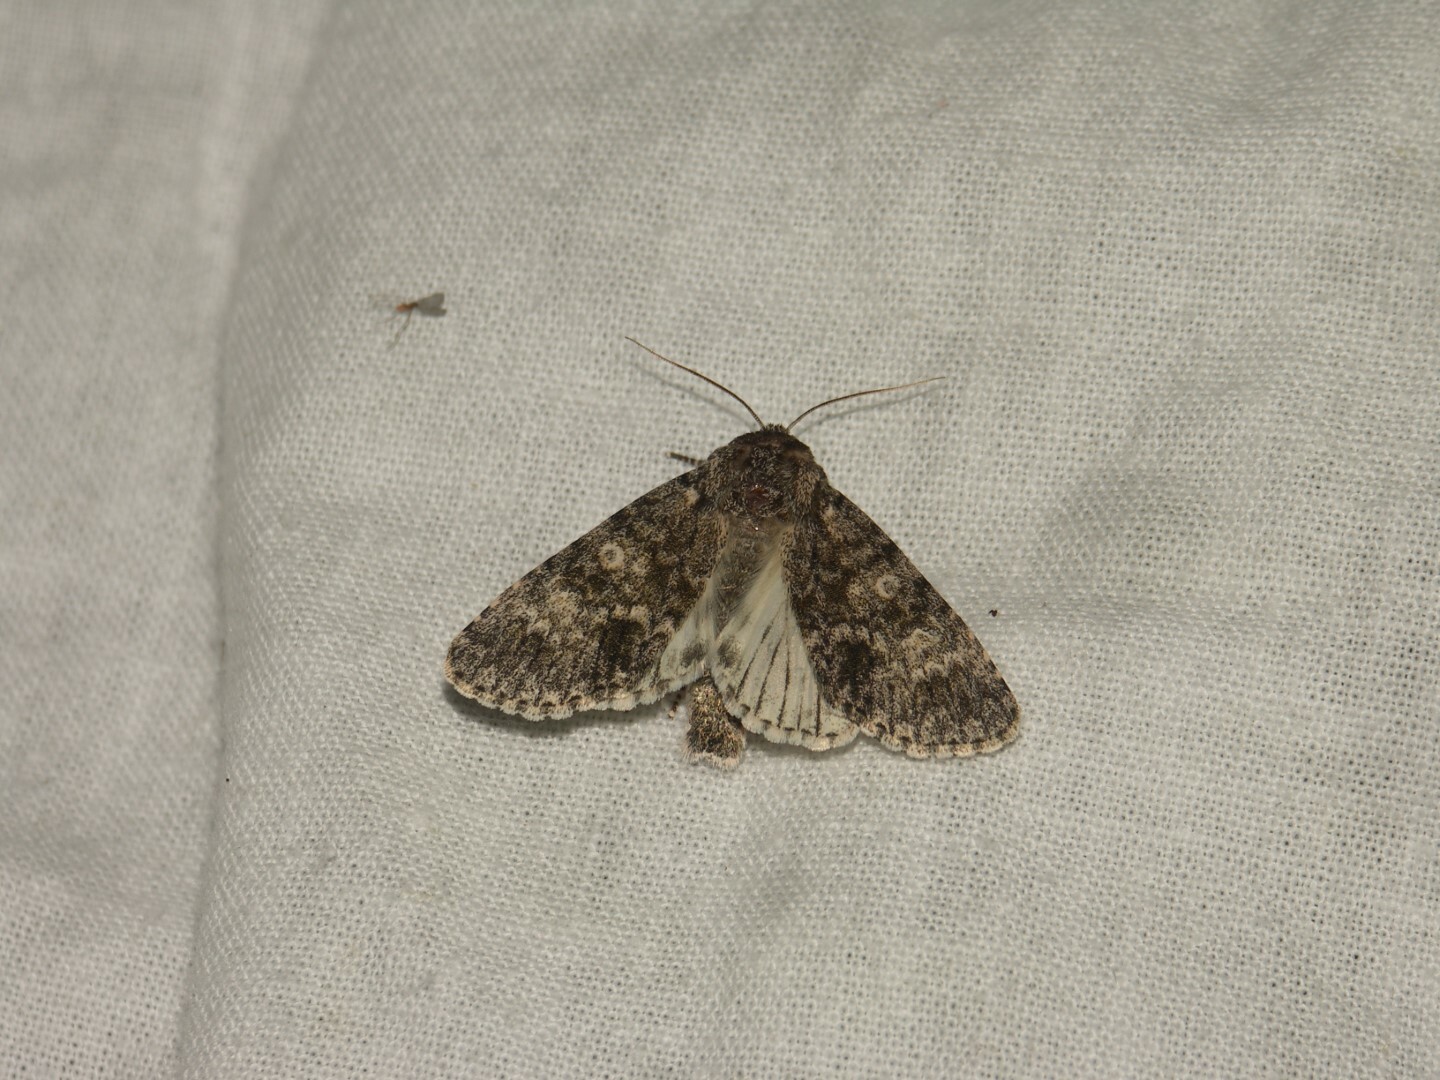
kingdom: Animalia
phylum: Arthropoda
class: Insecta
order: Lepidoptera
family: Noctuidae
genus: Acronicta
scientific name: Acronicta megacephala
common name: Poplar grey
